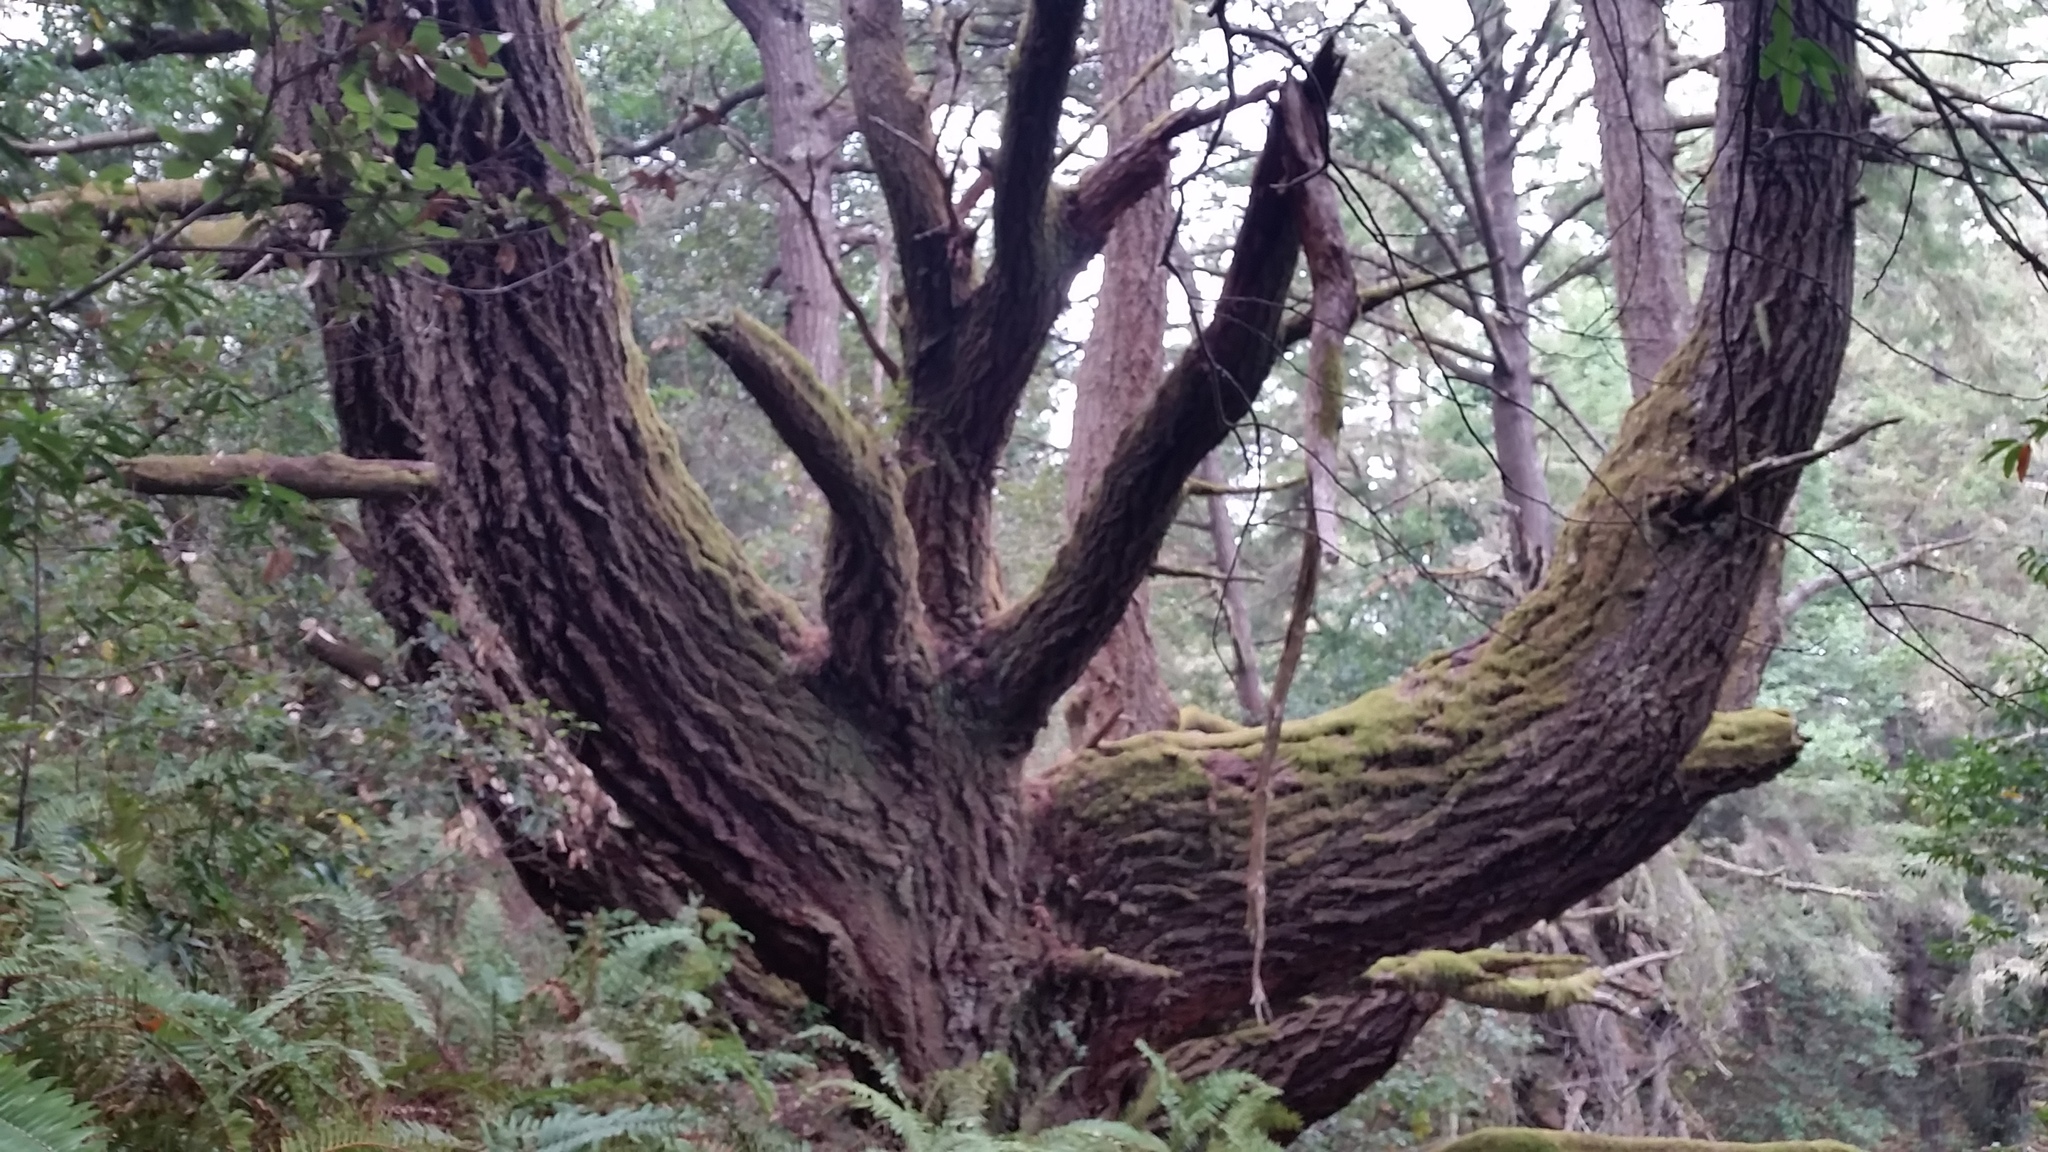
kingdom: Plantae
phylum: Tracheophyta
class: Pinopsida
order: Pinales
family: Pinaceae
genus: Pseudotsuga
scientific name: Pseudotsuga menziesii
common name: Douglas fir
